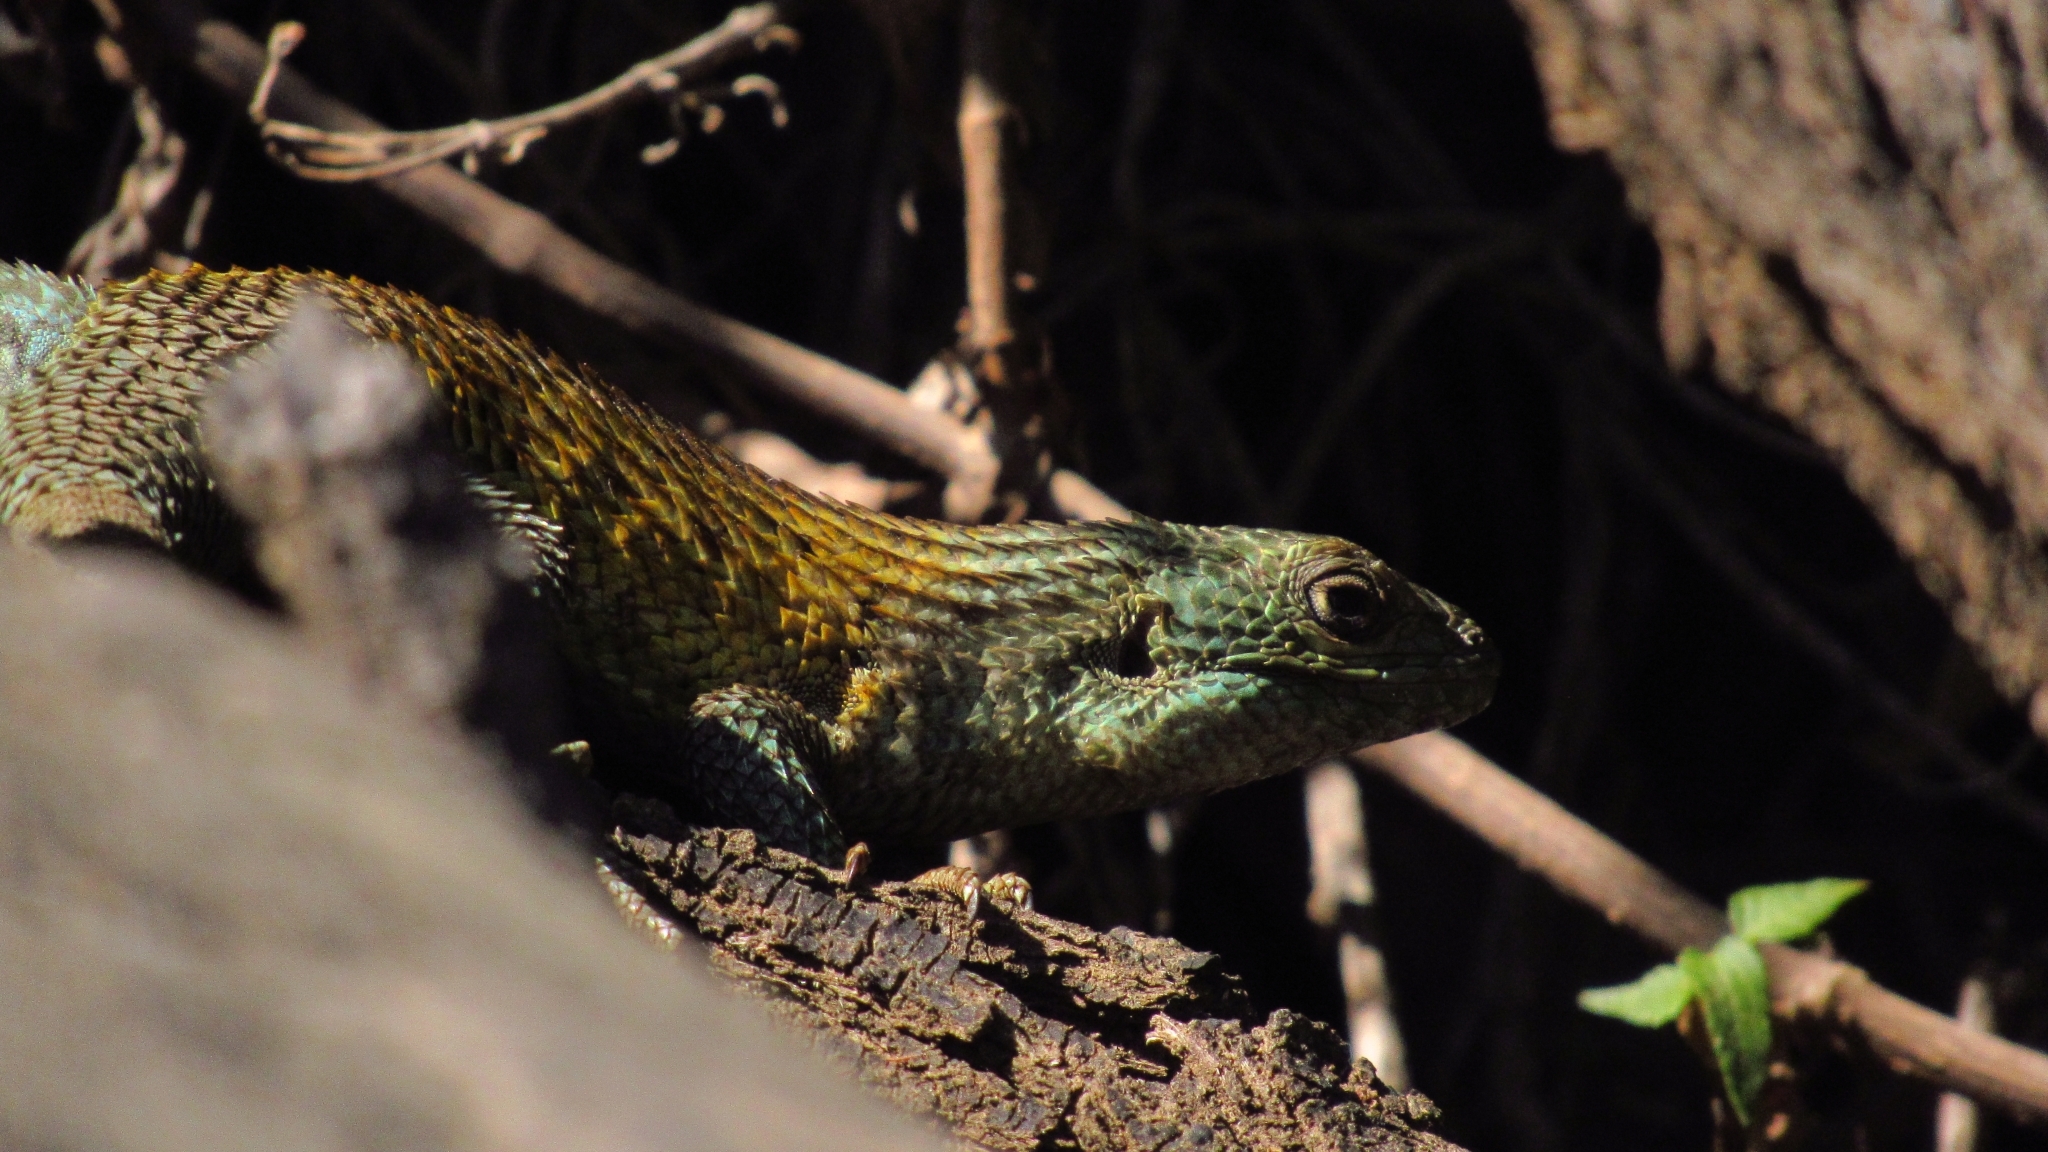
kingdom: Animalia
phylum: Chordata
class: Squamata
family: Liolaemidae
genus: Liolaemus
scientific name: Liolaemus nitidus
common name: Shining tree iguana
